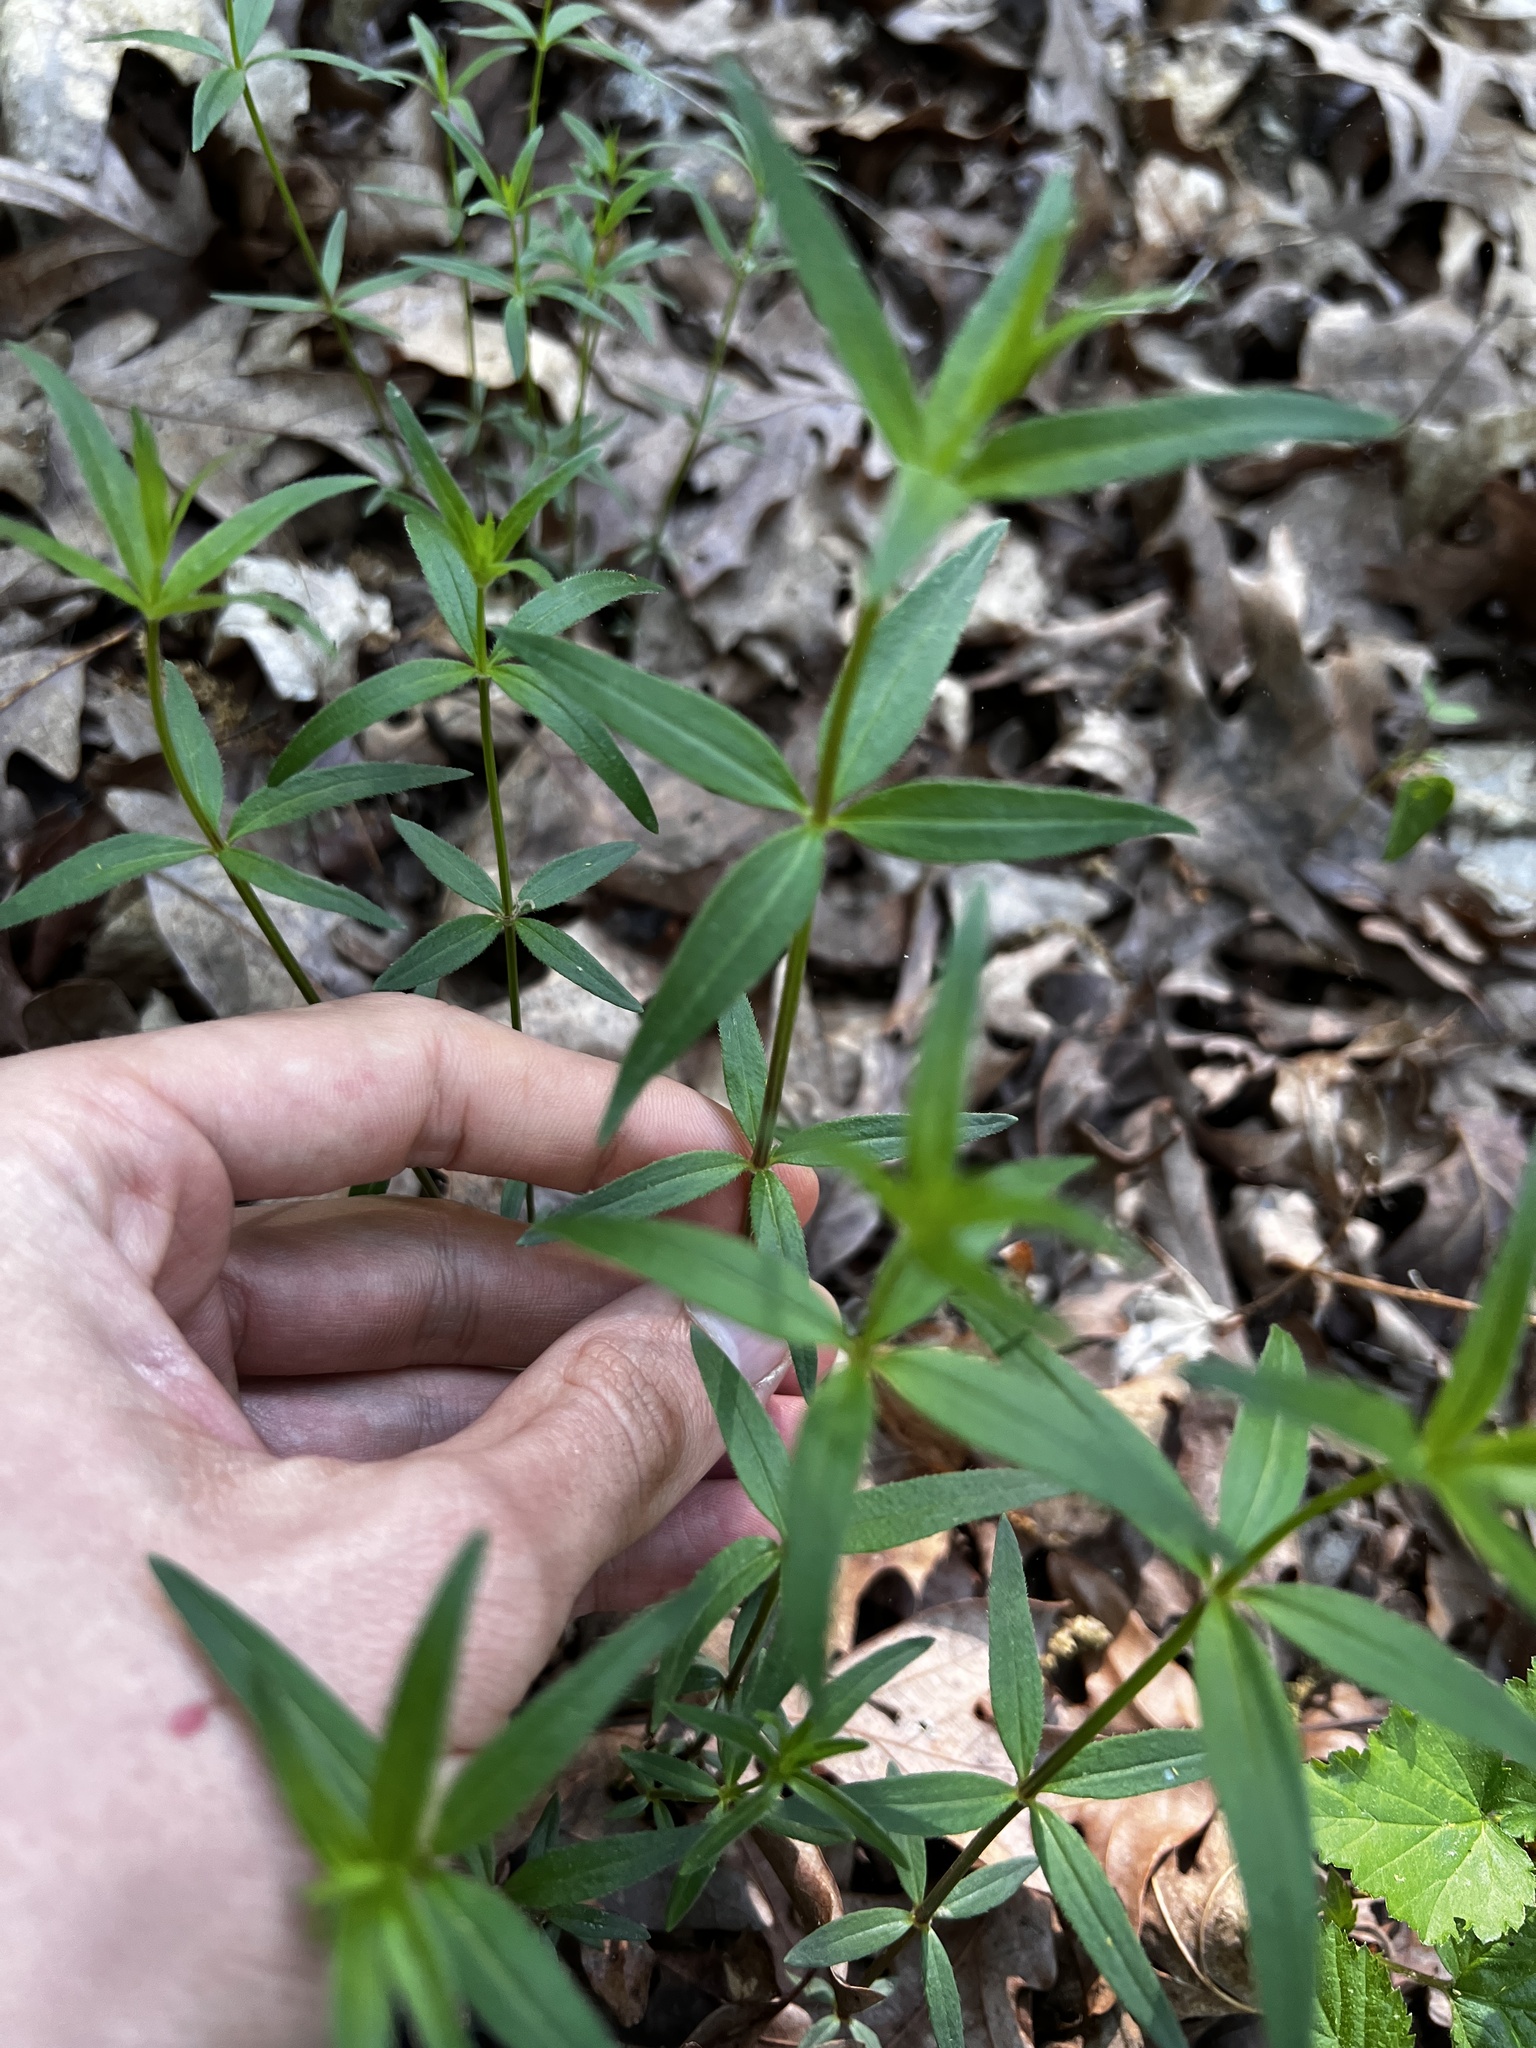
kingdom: Plantae
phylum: Tracheophyta
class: Magnoliopsida
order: Gentianales
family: Rubiaceae
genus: Galium
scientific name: Galium arkansanum
